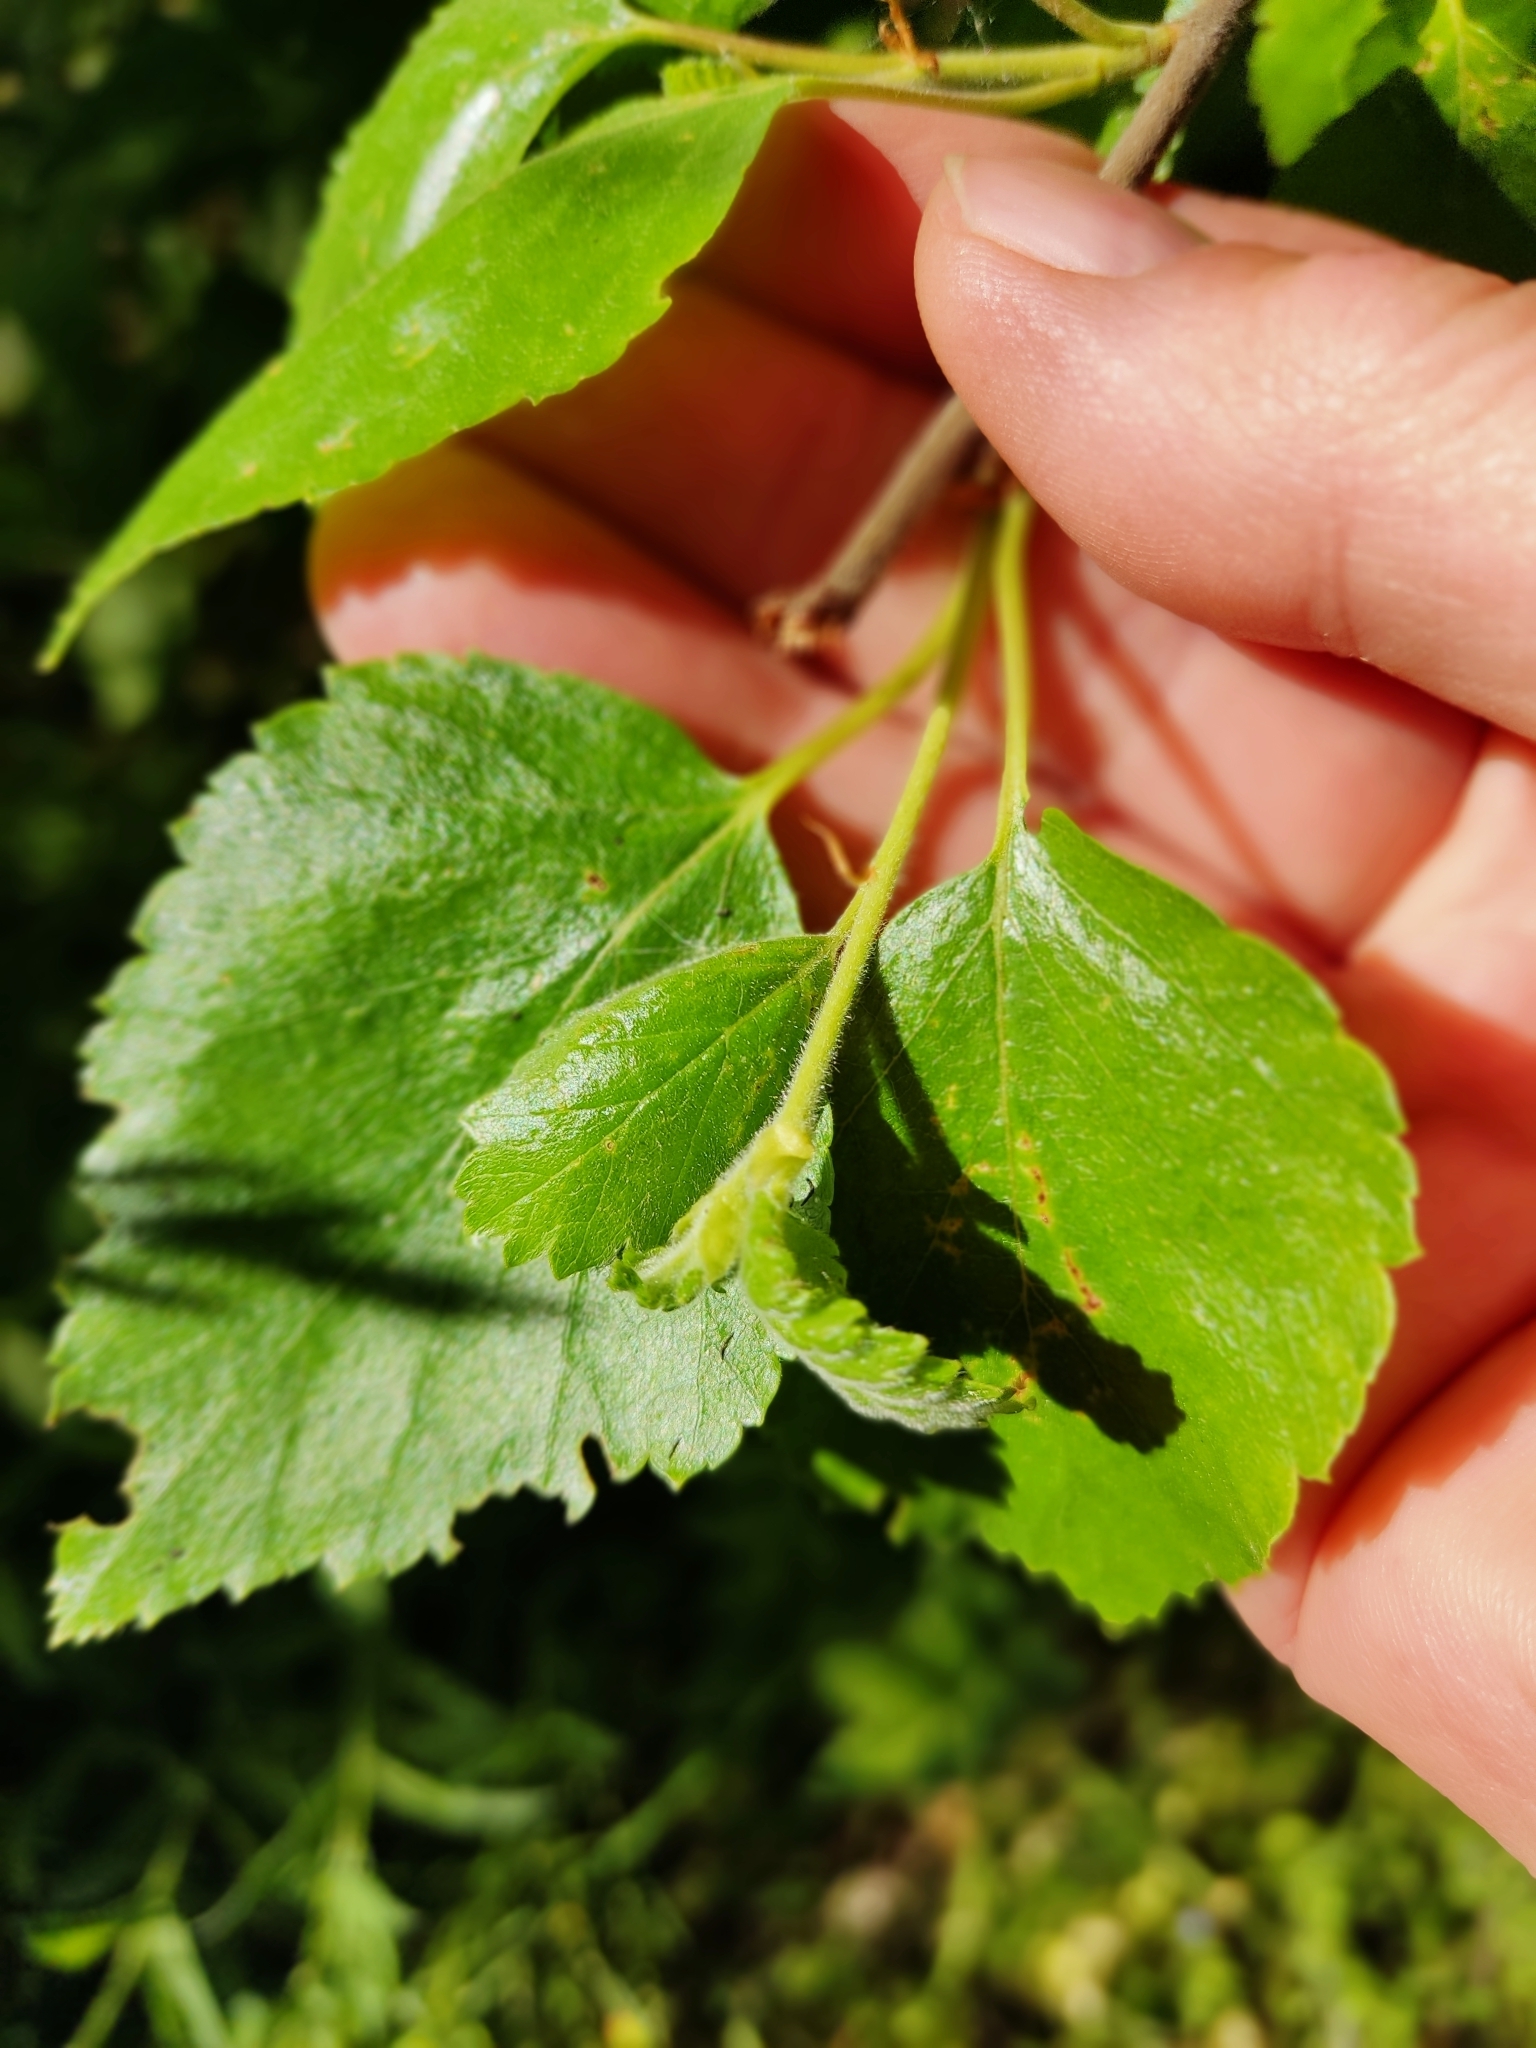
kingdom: Plantae
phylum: Tracheophyta
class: Magnoliopsida
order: Fagales
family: Betulaceae
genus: Betula
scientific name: Betula pubescens
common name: Downy birch
